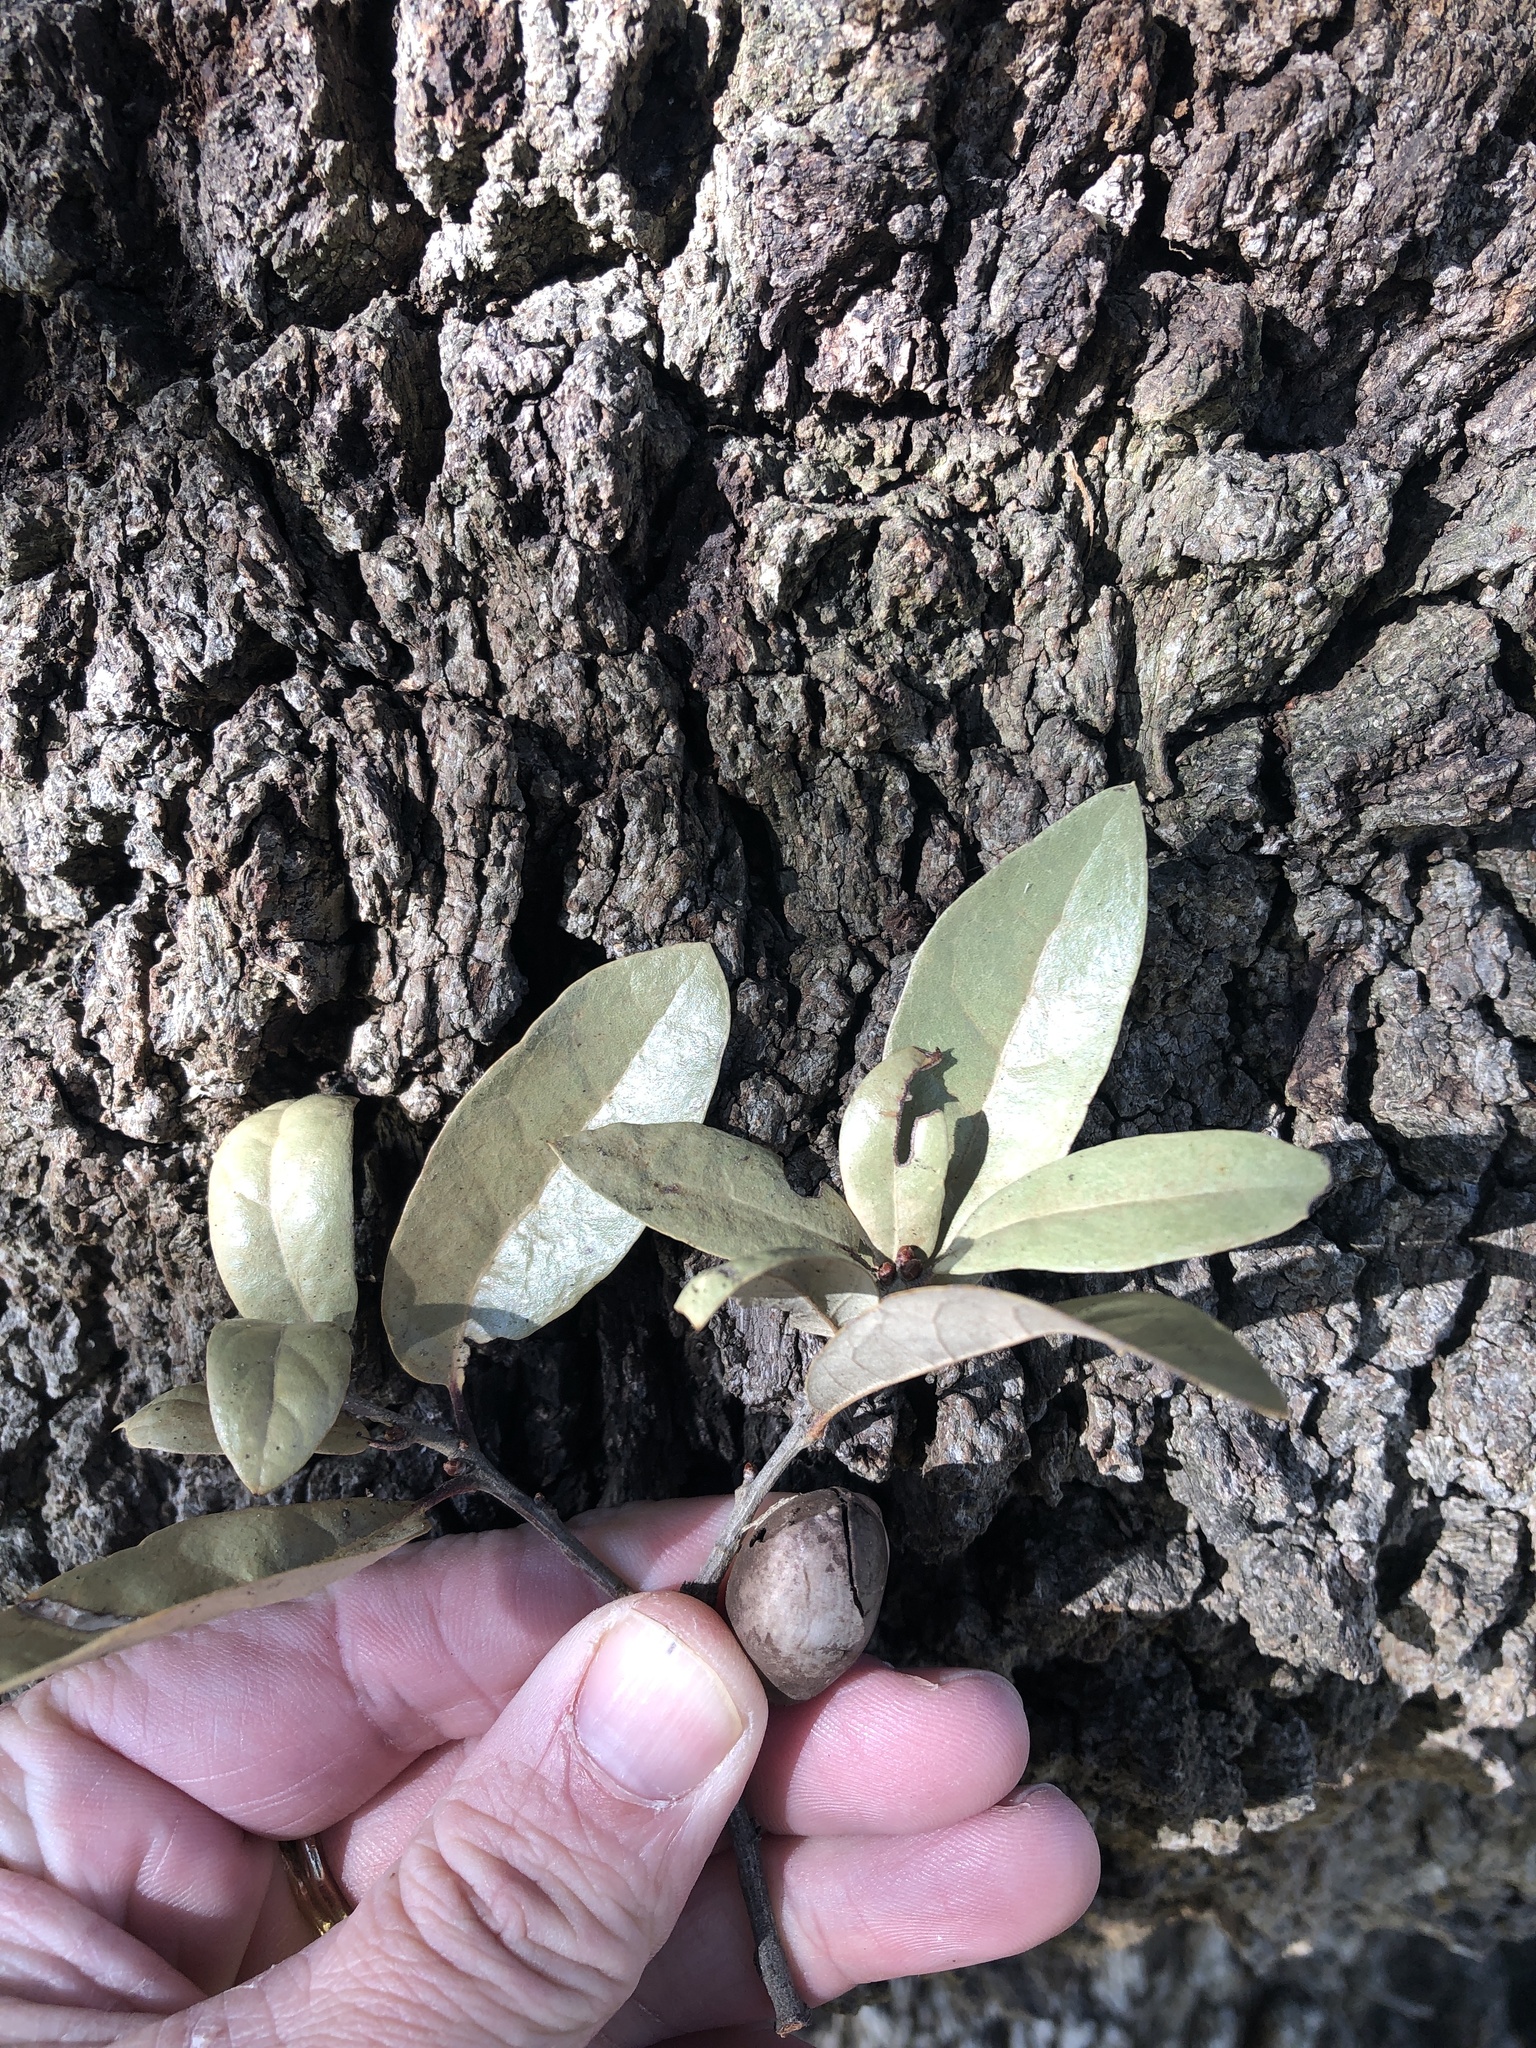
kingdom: Plantae
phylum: Tracheophyta
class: Magnoliopsida
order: Fagales
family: Fagaceae
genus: Quercus
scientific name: Quercus virginiana
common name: Southern live oak
